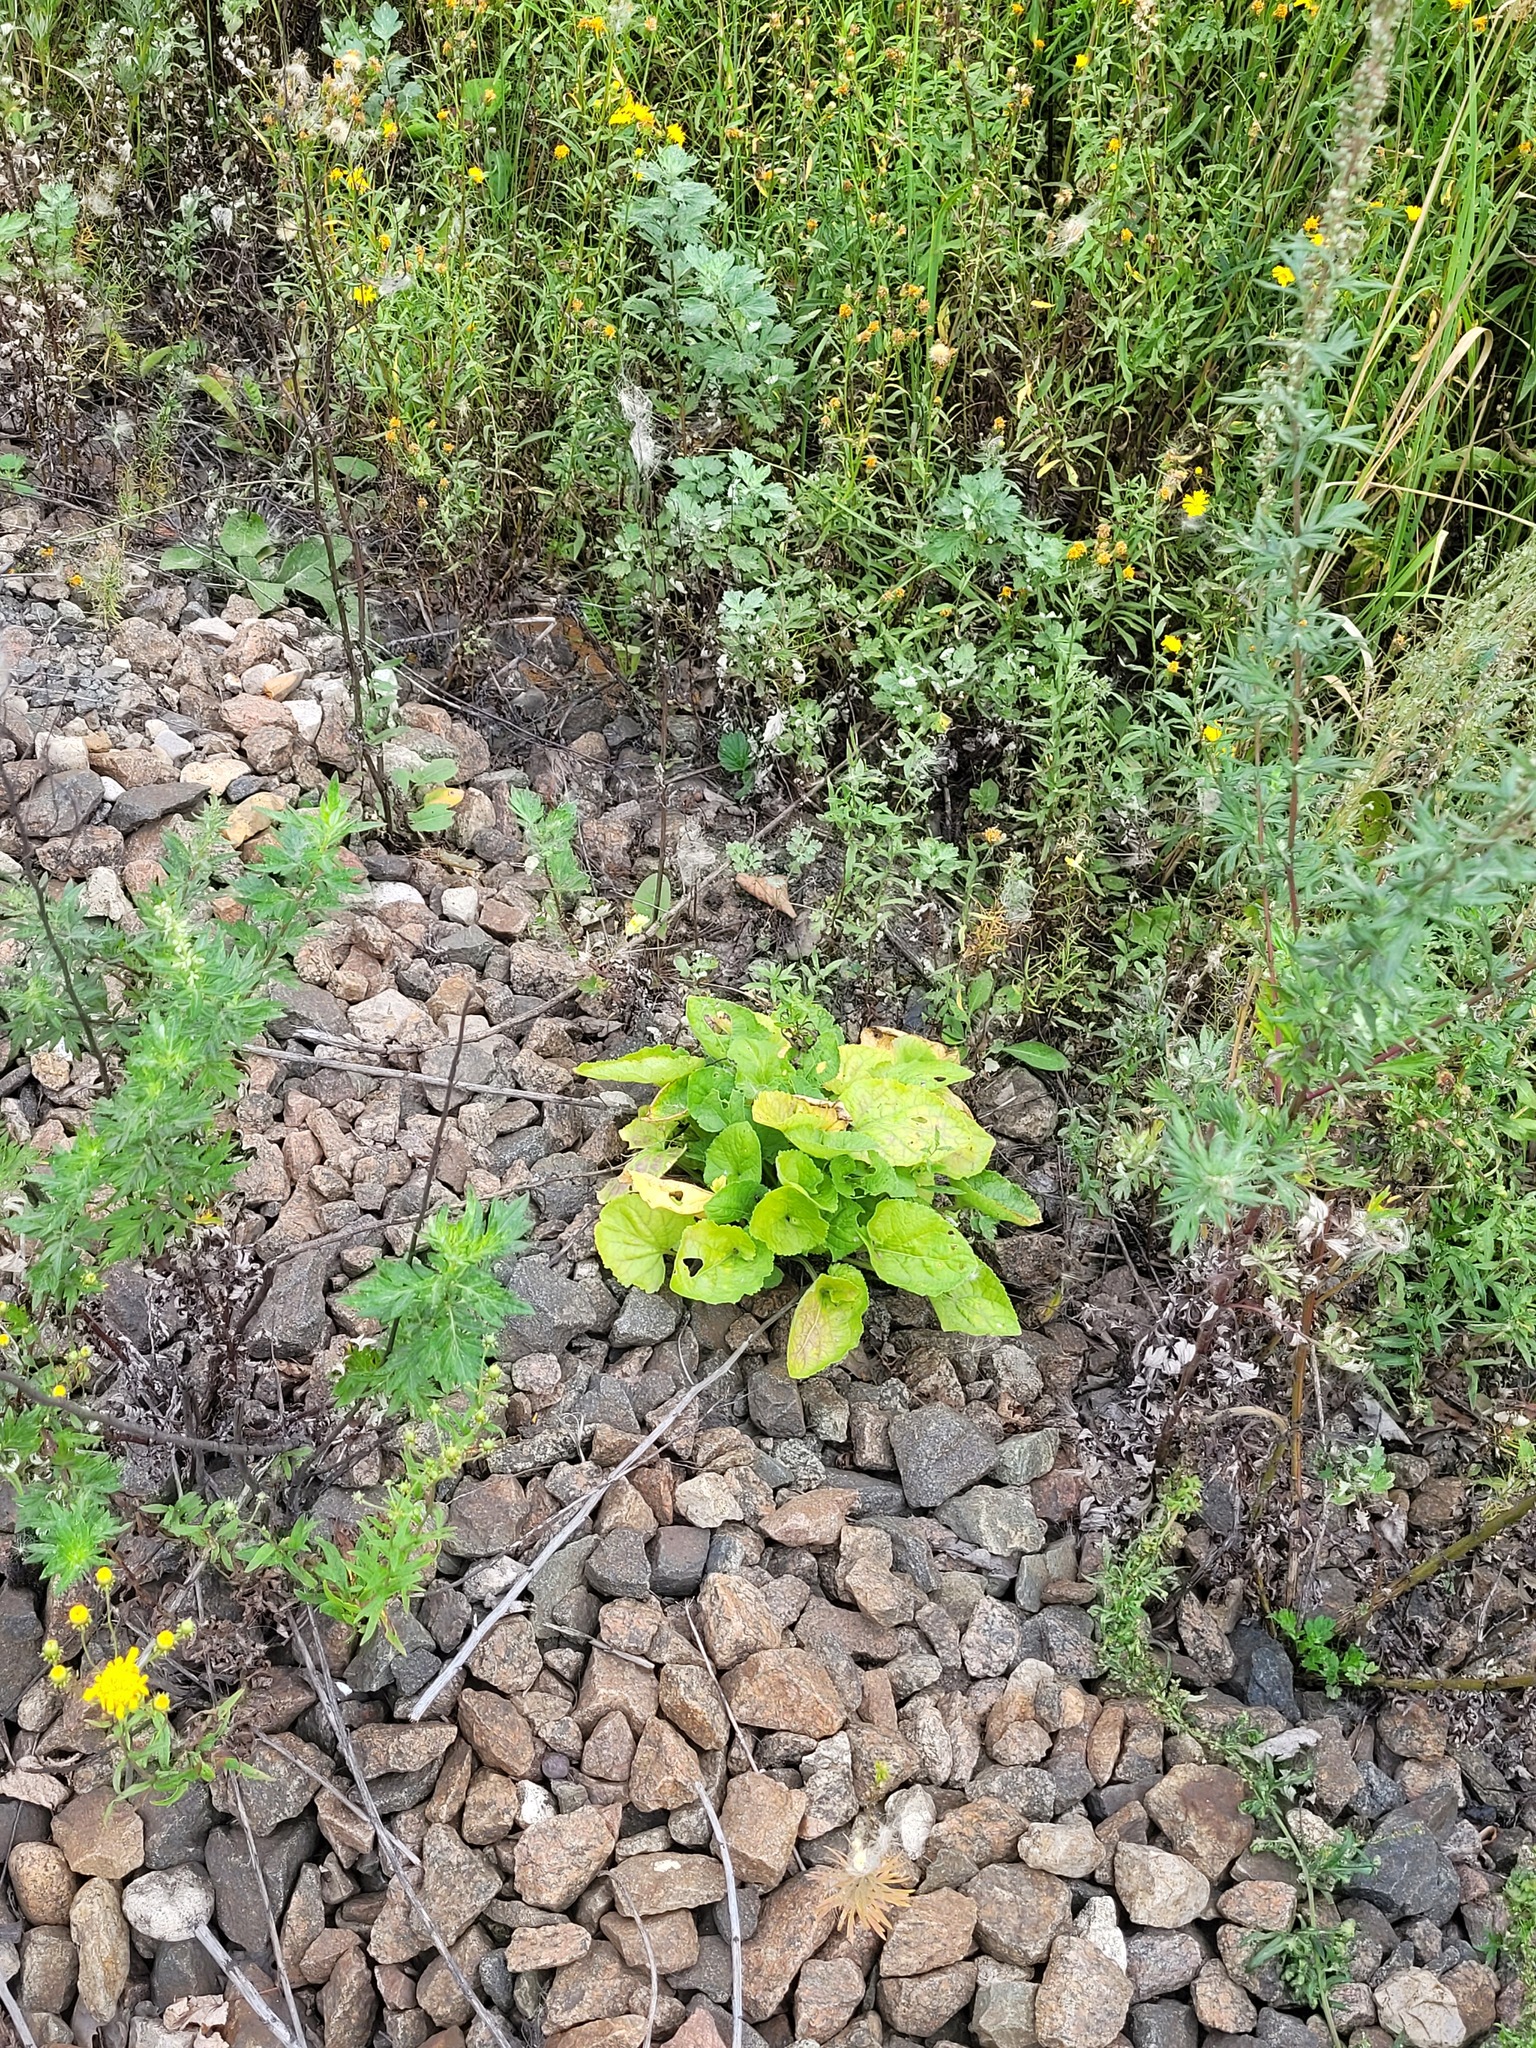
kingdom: Plantae
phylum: Tracheophyta
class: Magnoliopsida
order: Malpighiales
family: Violaceae
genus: Viola
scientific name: Viola hirta
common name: Hairy violet
